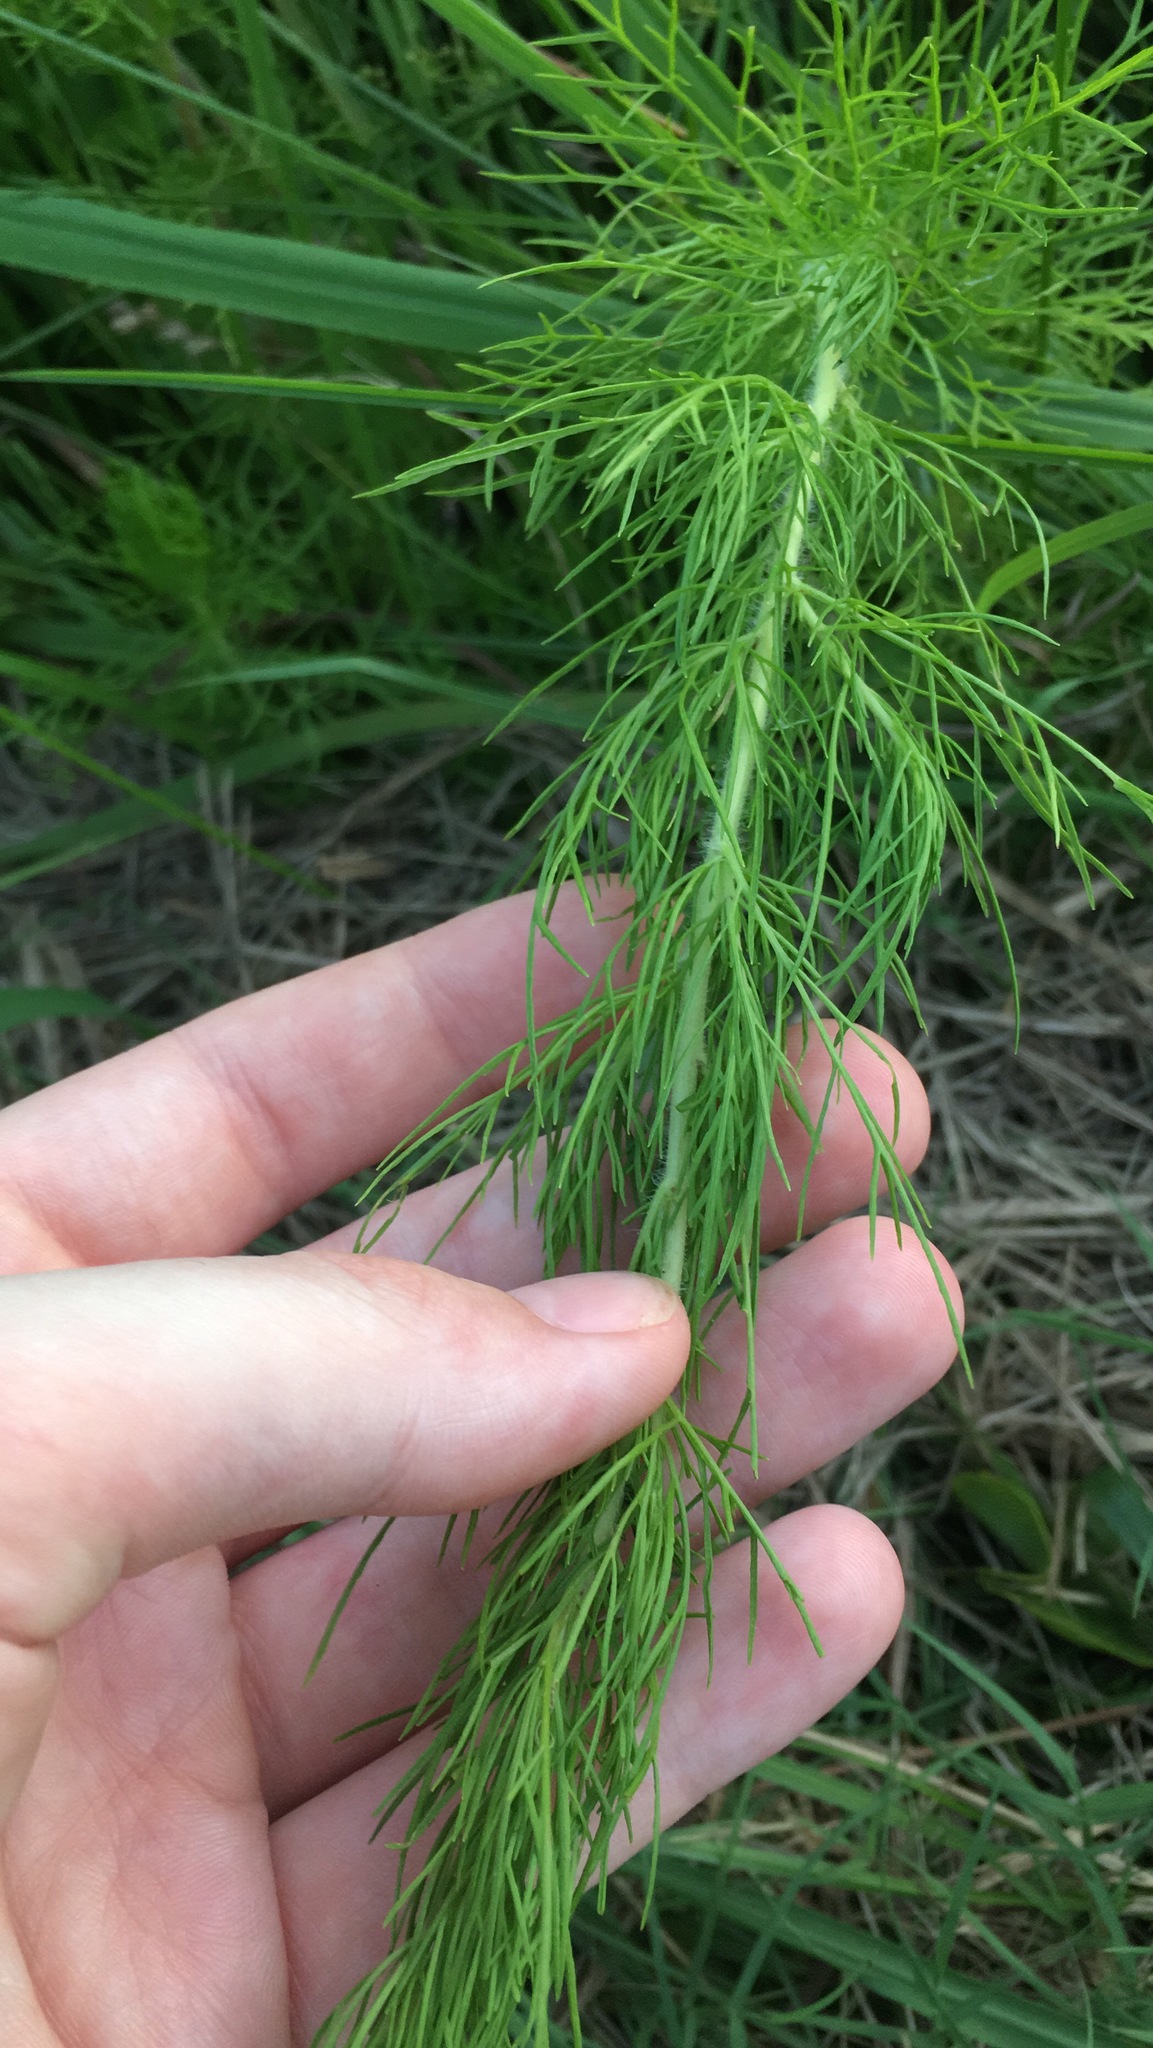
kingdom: Plantae
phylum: Tracheophyta
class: Magnoliopsida
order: Asterales
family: Asteraceae
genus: Eupatorium
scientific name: Eupatorium capillifolium
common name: Dog-fennel
